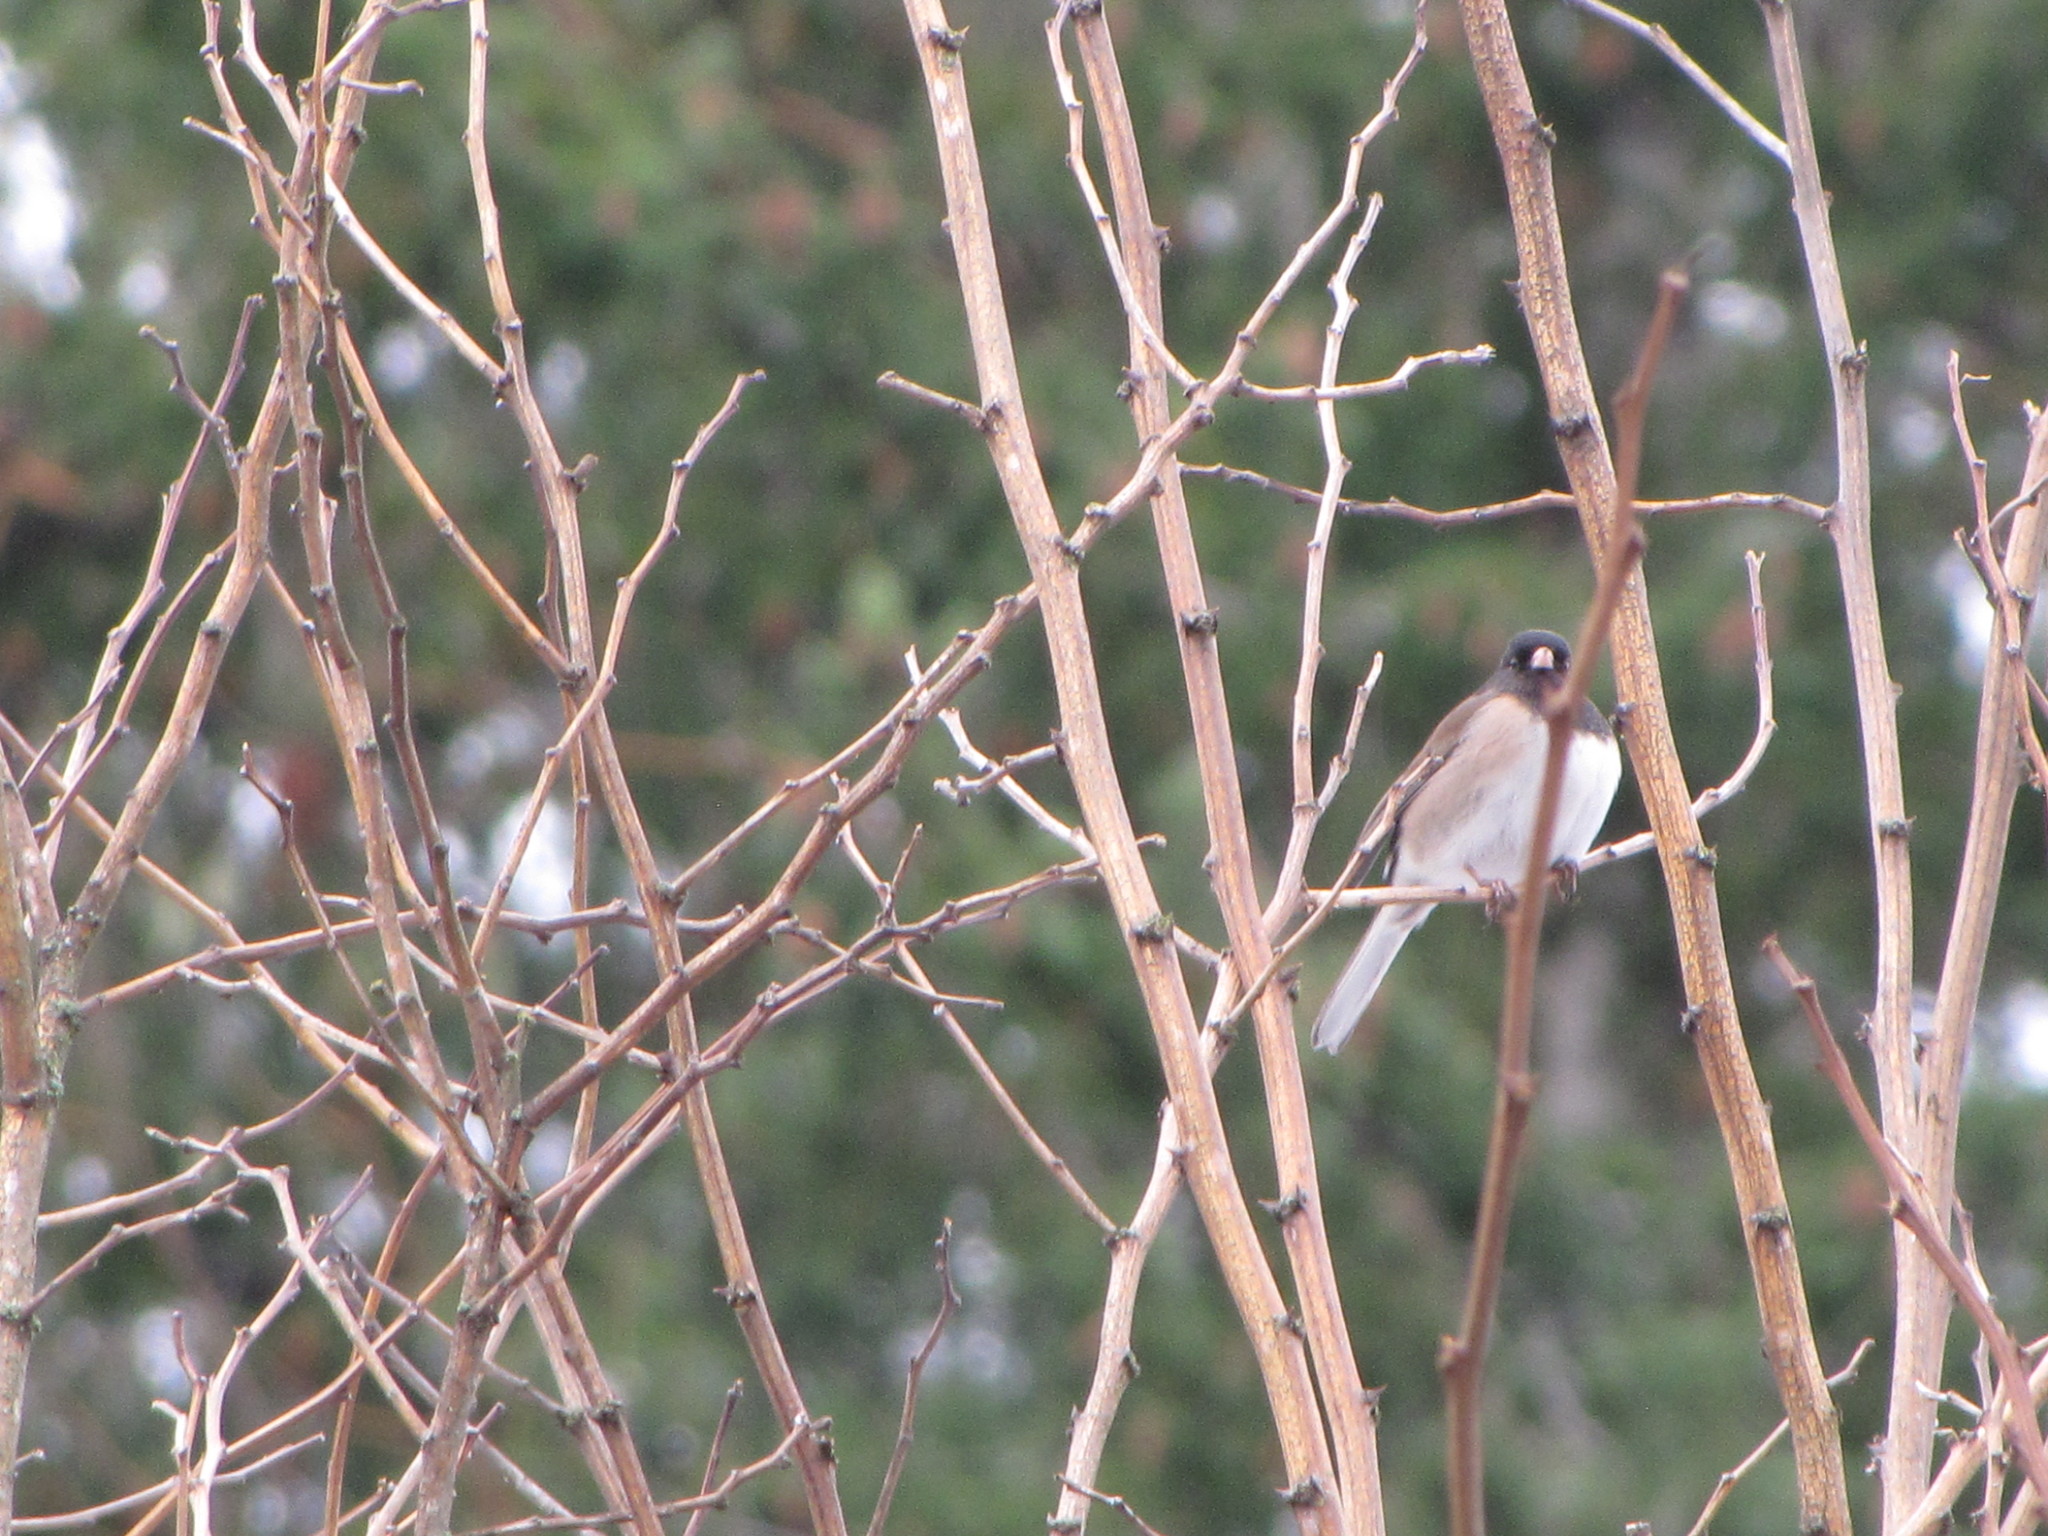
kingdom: Animalia
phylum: Chordata
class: Aves
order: Passeriformes
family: Passerellidae
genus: Junco
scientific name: Junco hyemalis
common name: Dark-eyed junco
